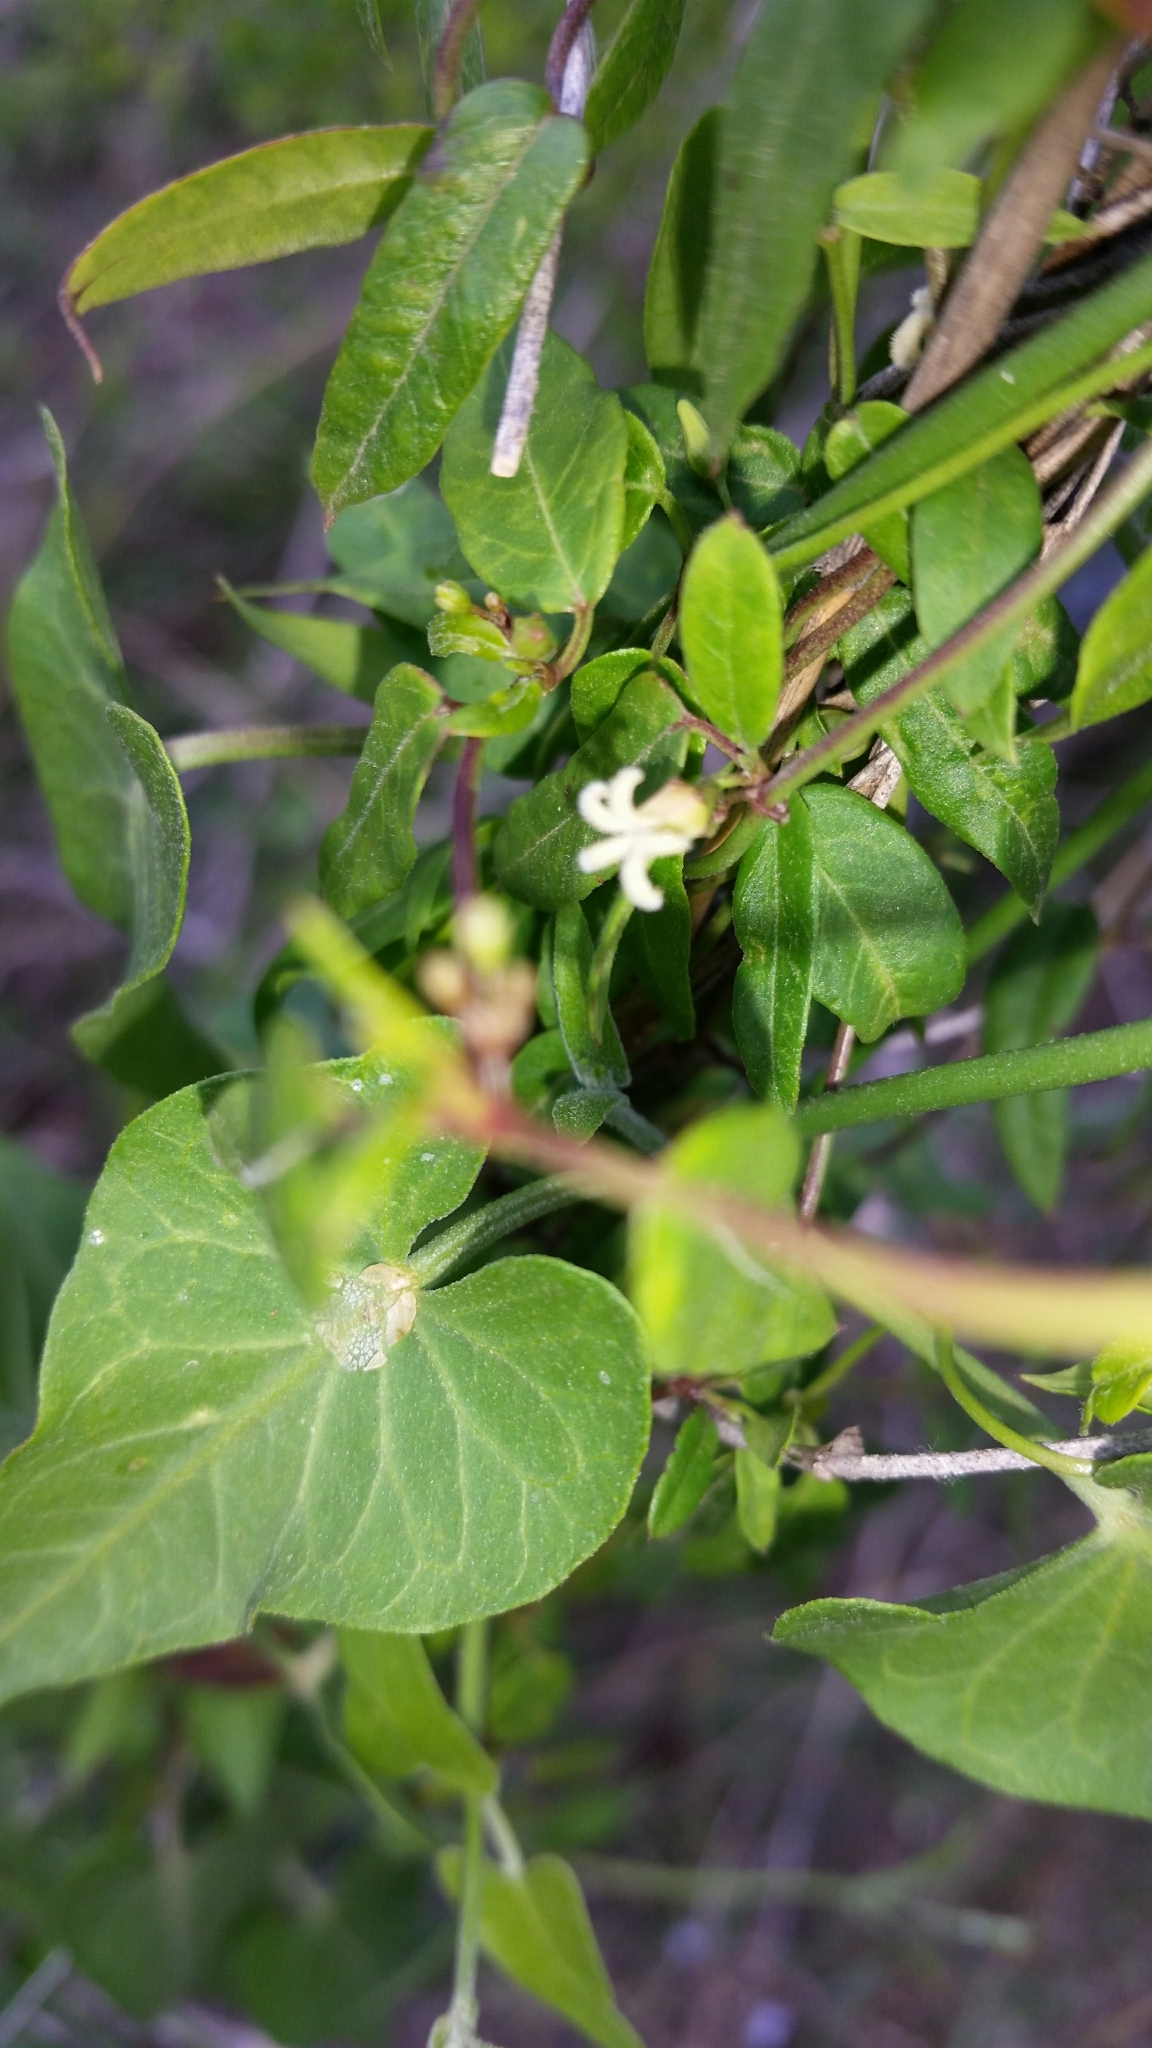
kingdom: Plantae
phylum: Tracheophyta
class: Magnoliopsida
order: Gentianales
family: Apocynaceae
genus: Metastelma
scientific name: Metastelma barbigerum
